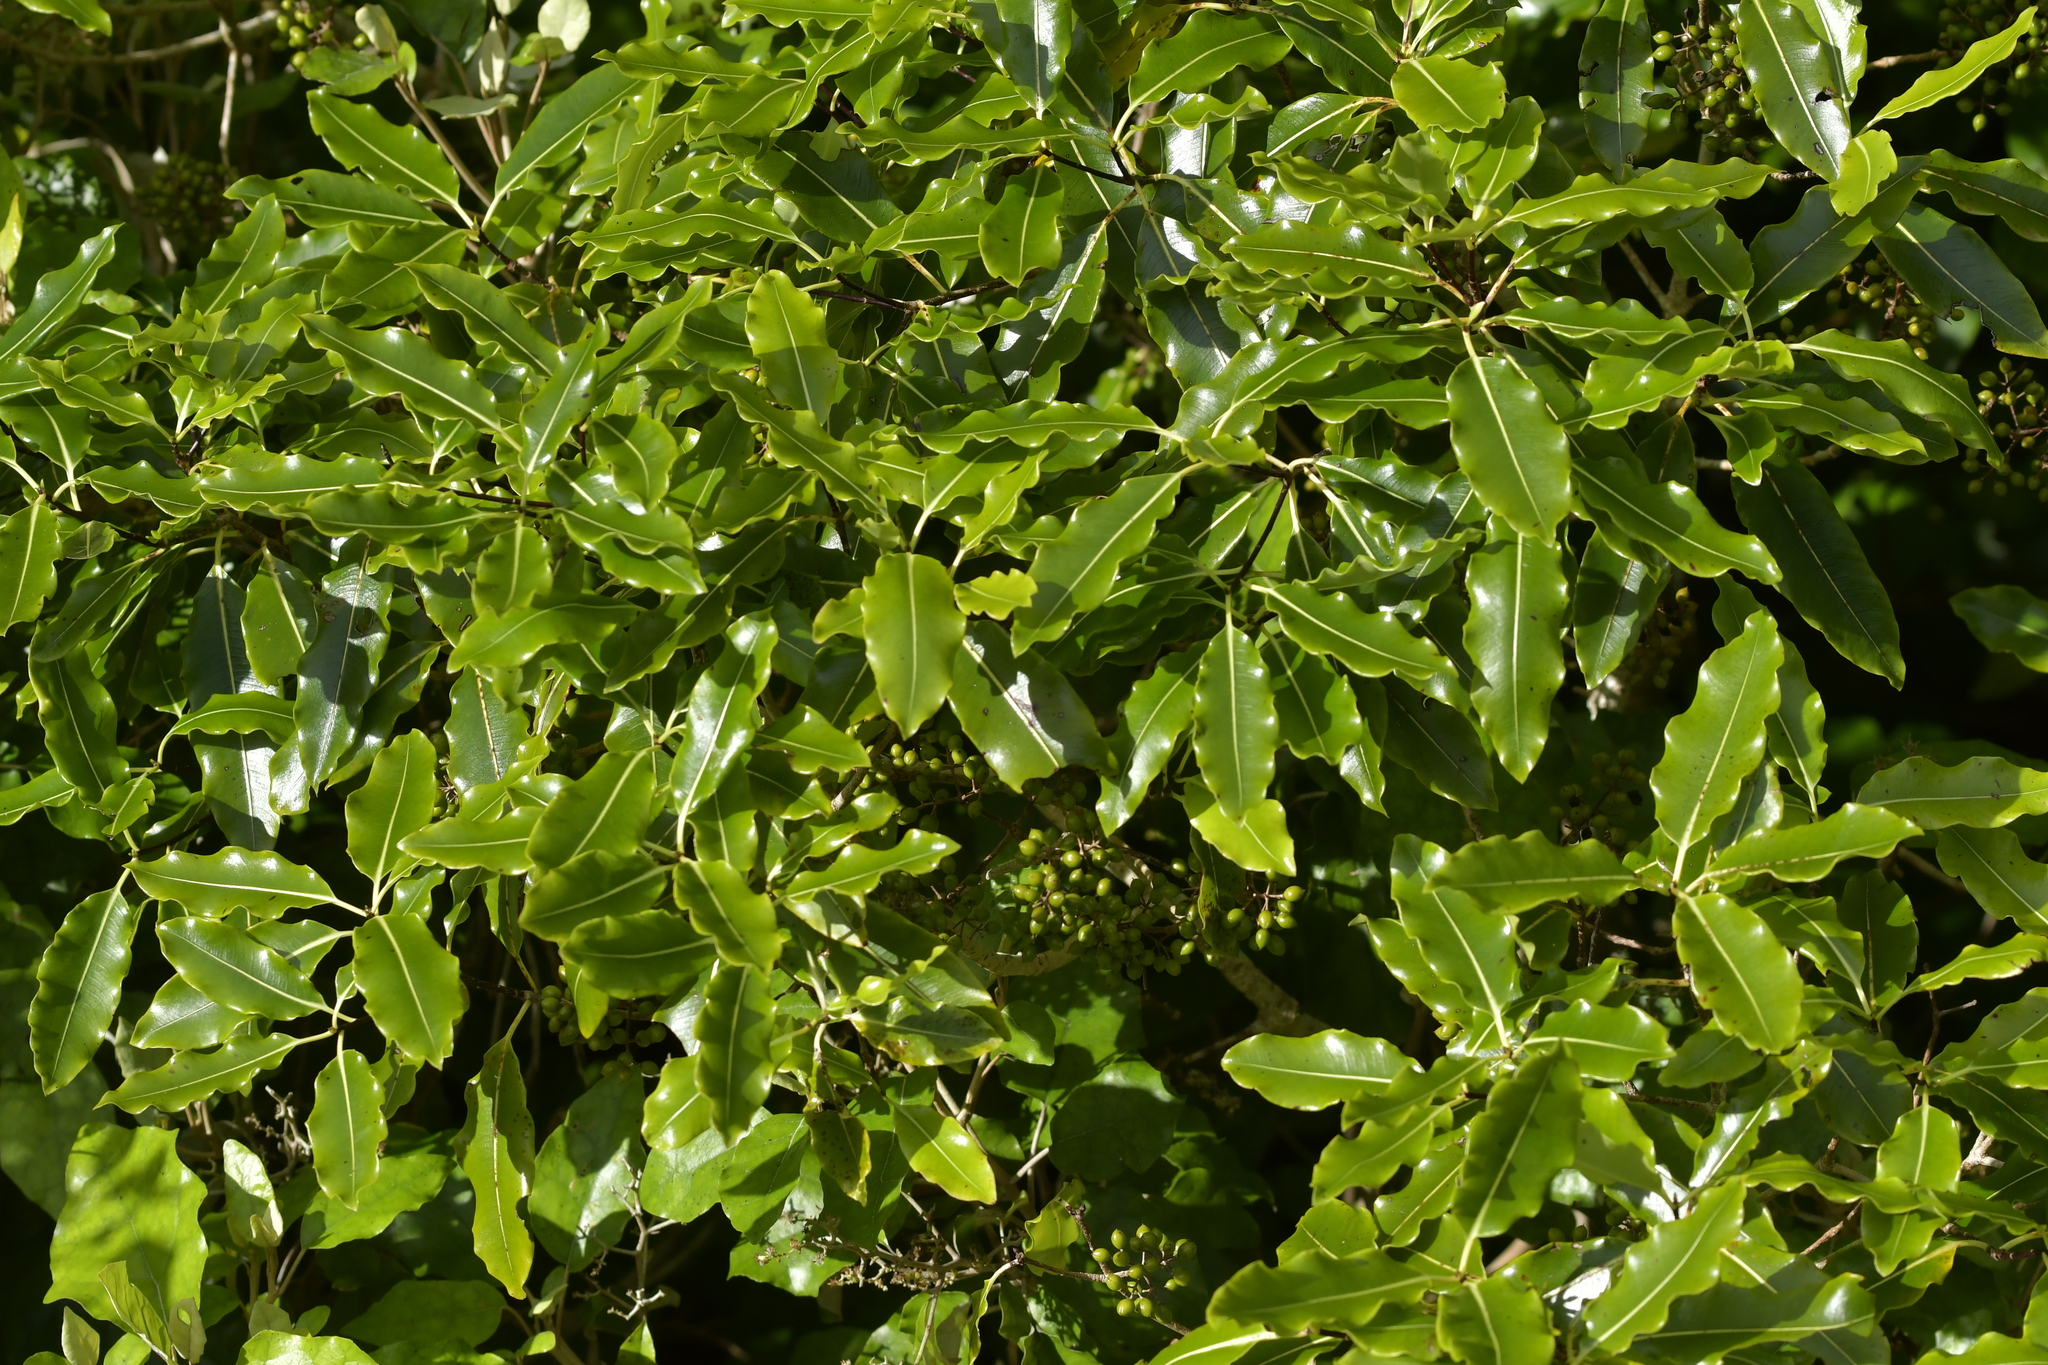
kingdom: Plantae
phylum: Tracheophyta
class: Magnoliopsida
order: Apiales
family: Pittosporaceae
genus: Pittosporum
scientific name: Pittosporum eugenioides
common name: Lemonwood
